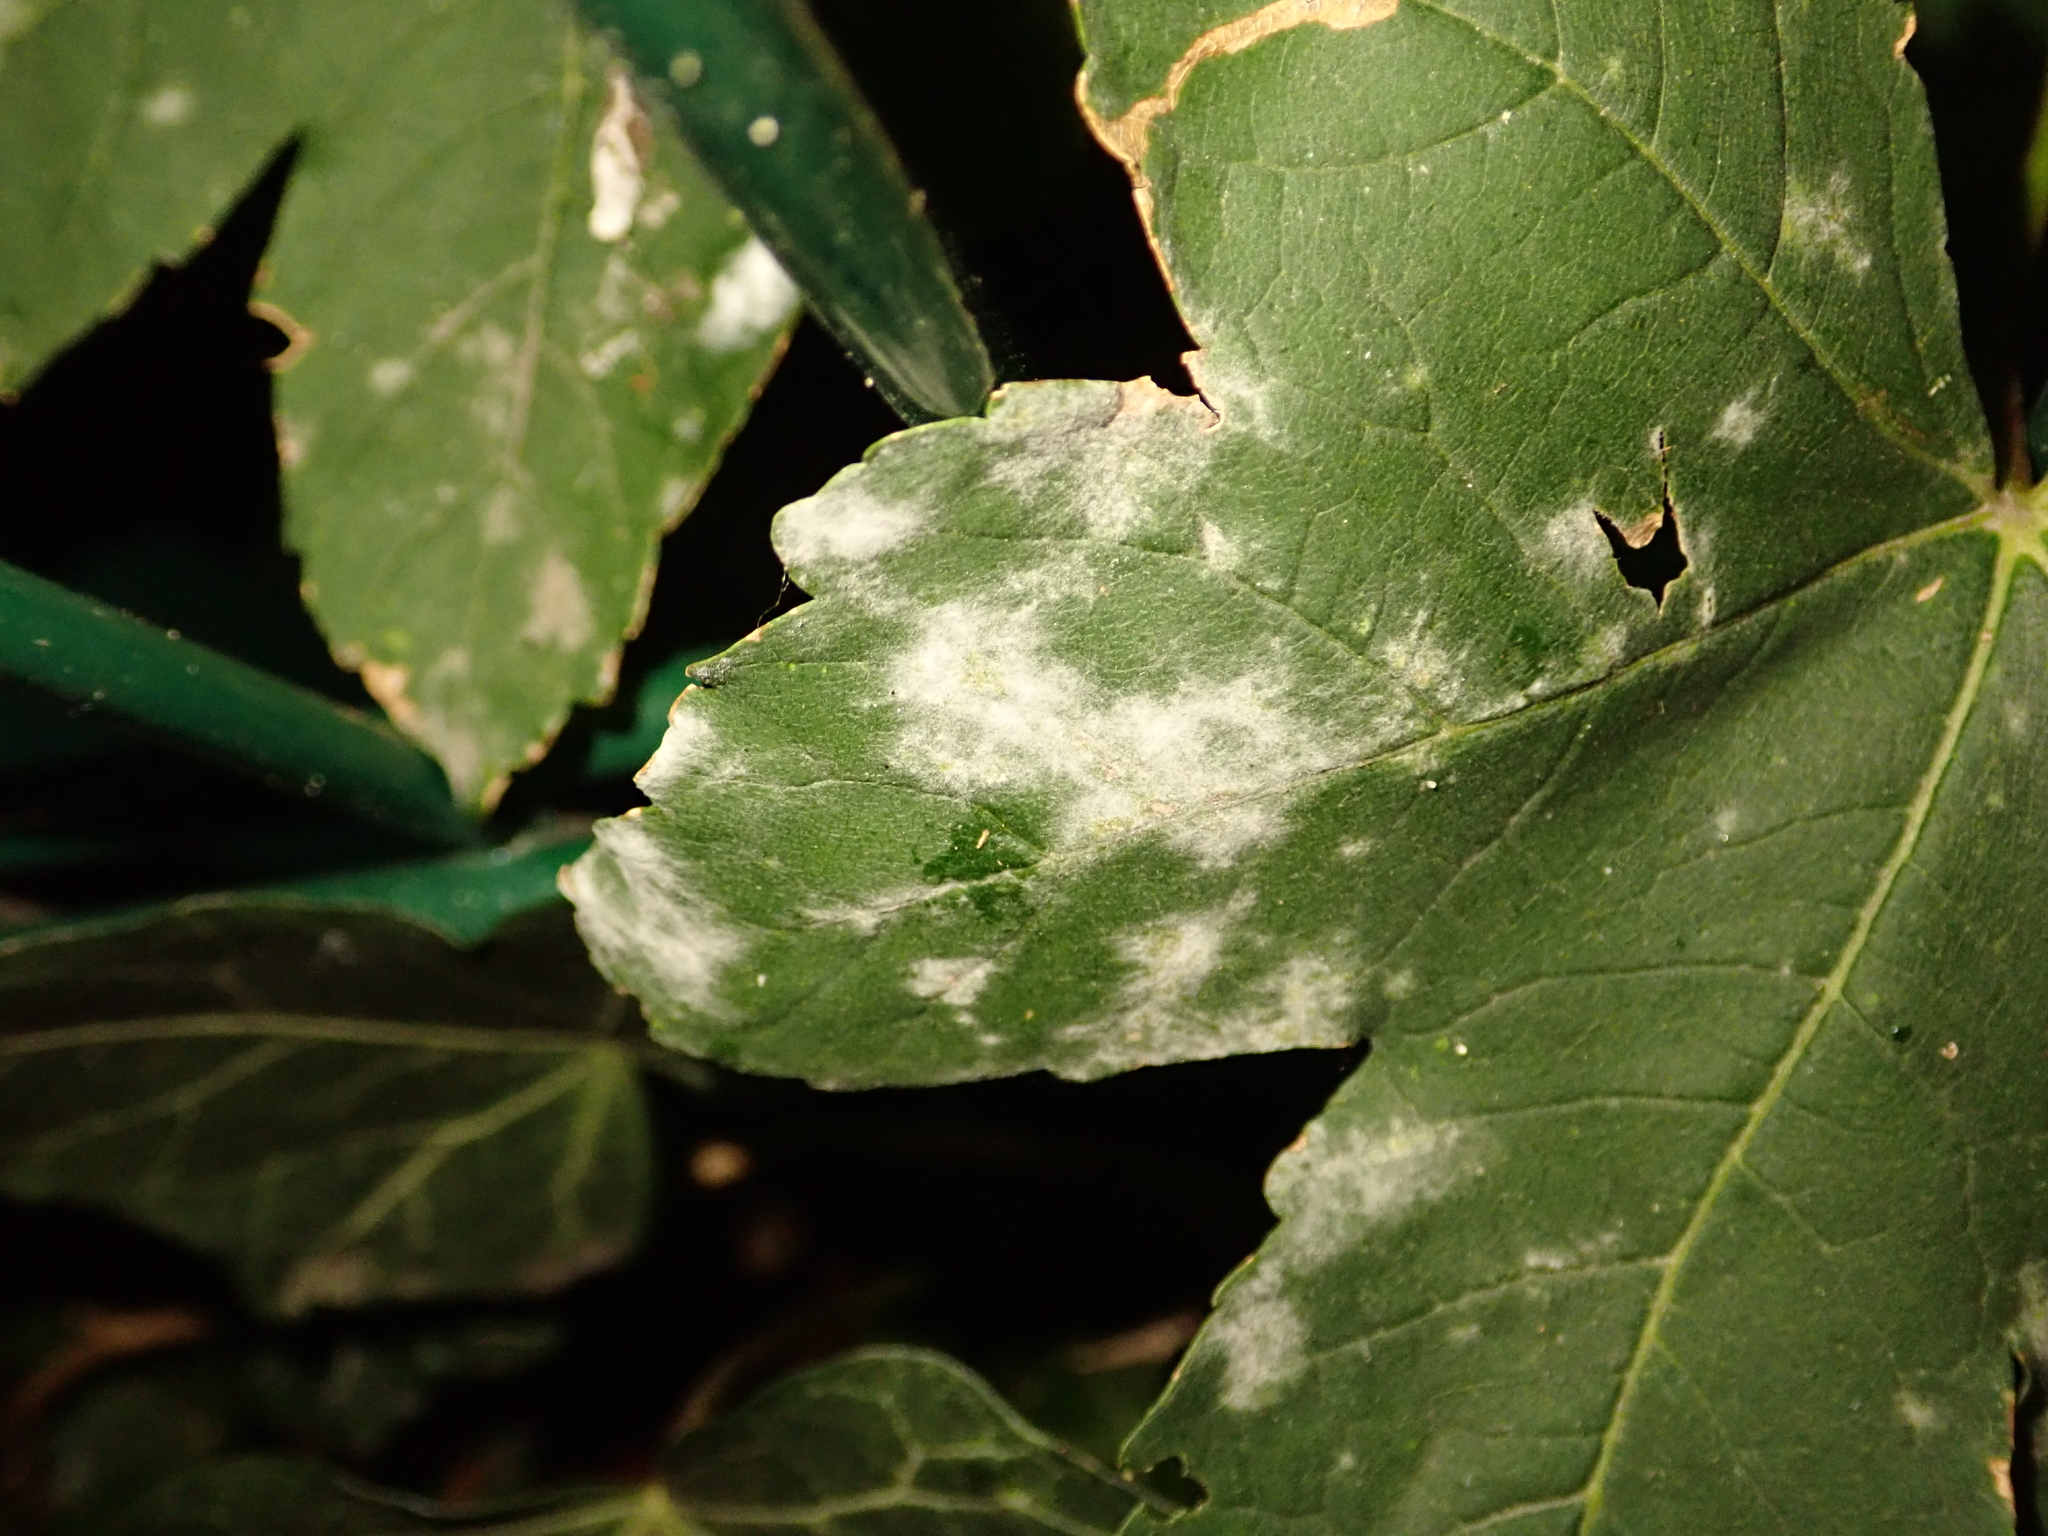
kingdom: Fungi
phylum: Ascomycota
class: Leotiomycetes
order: Helotiales
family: Erysiphaceae
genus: Sawadaea
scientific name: Sawadaea bicornis
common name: Maple mildew
